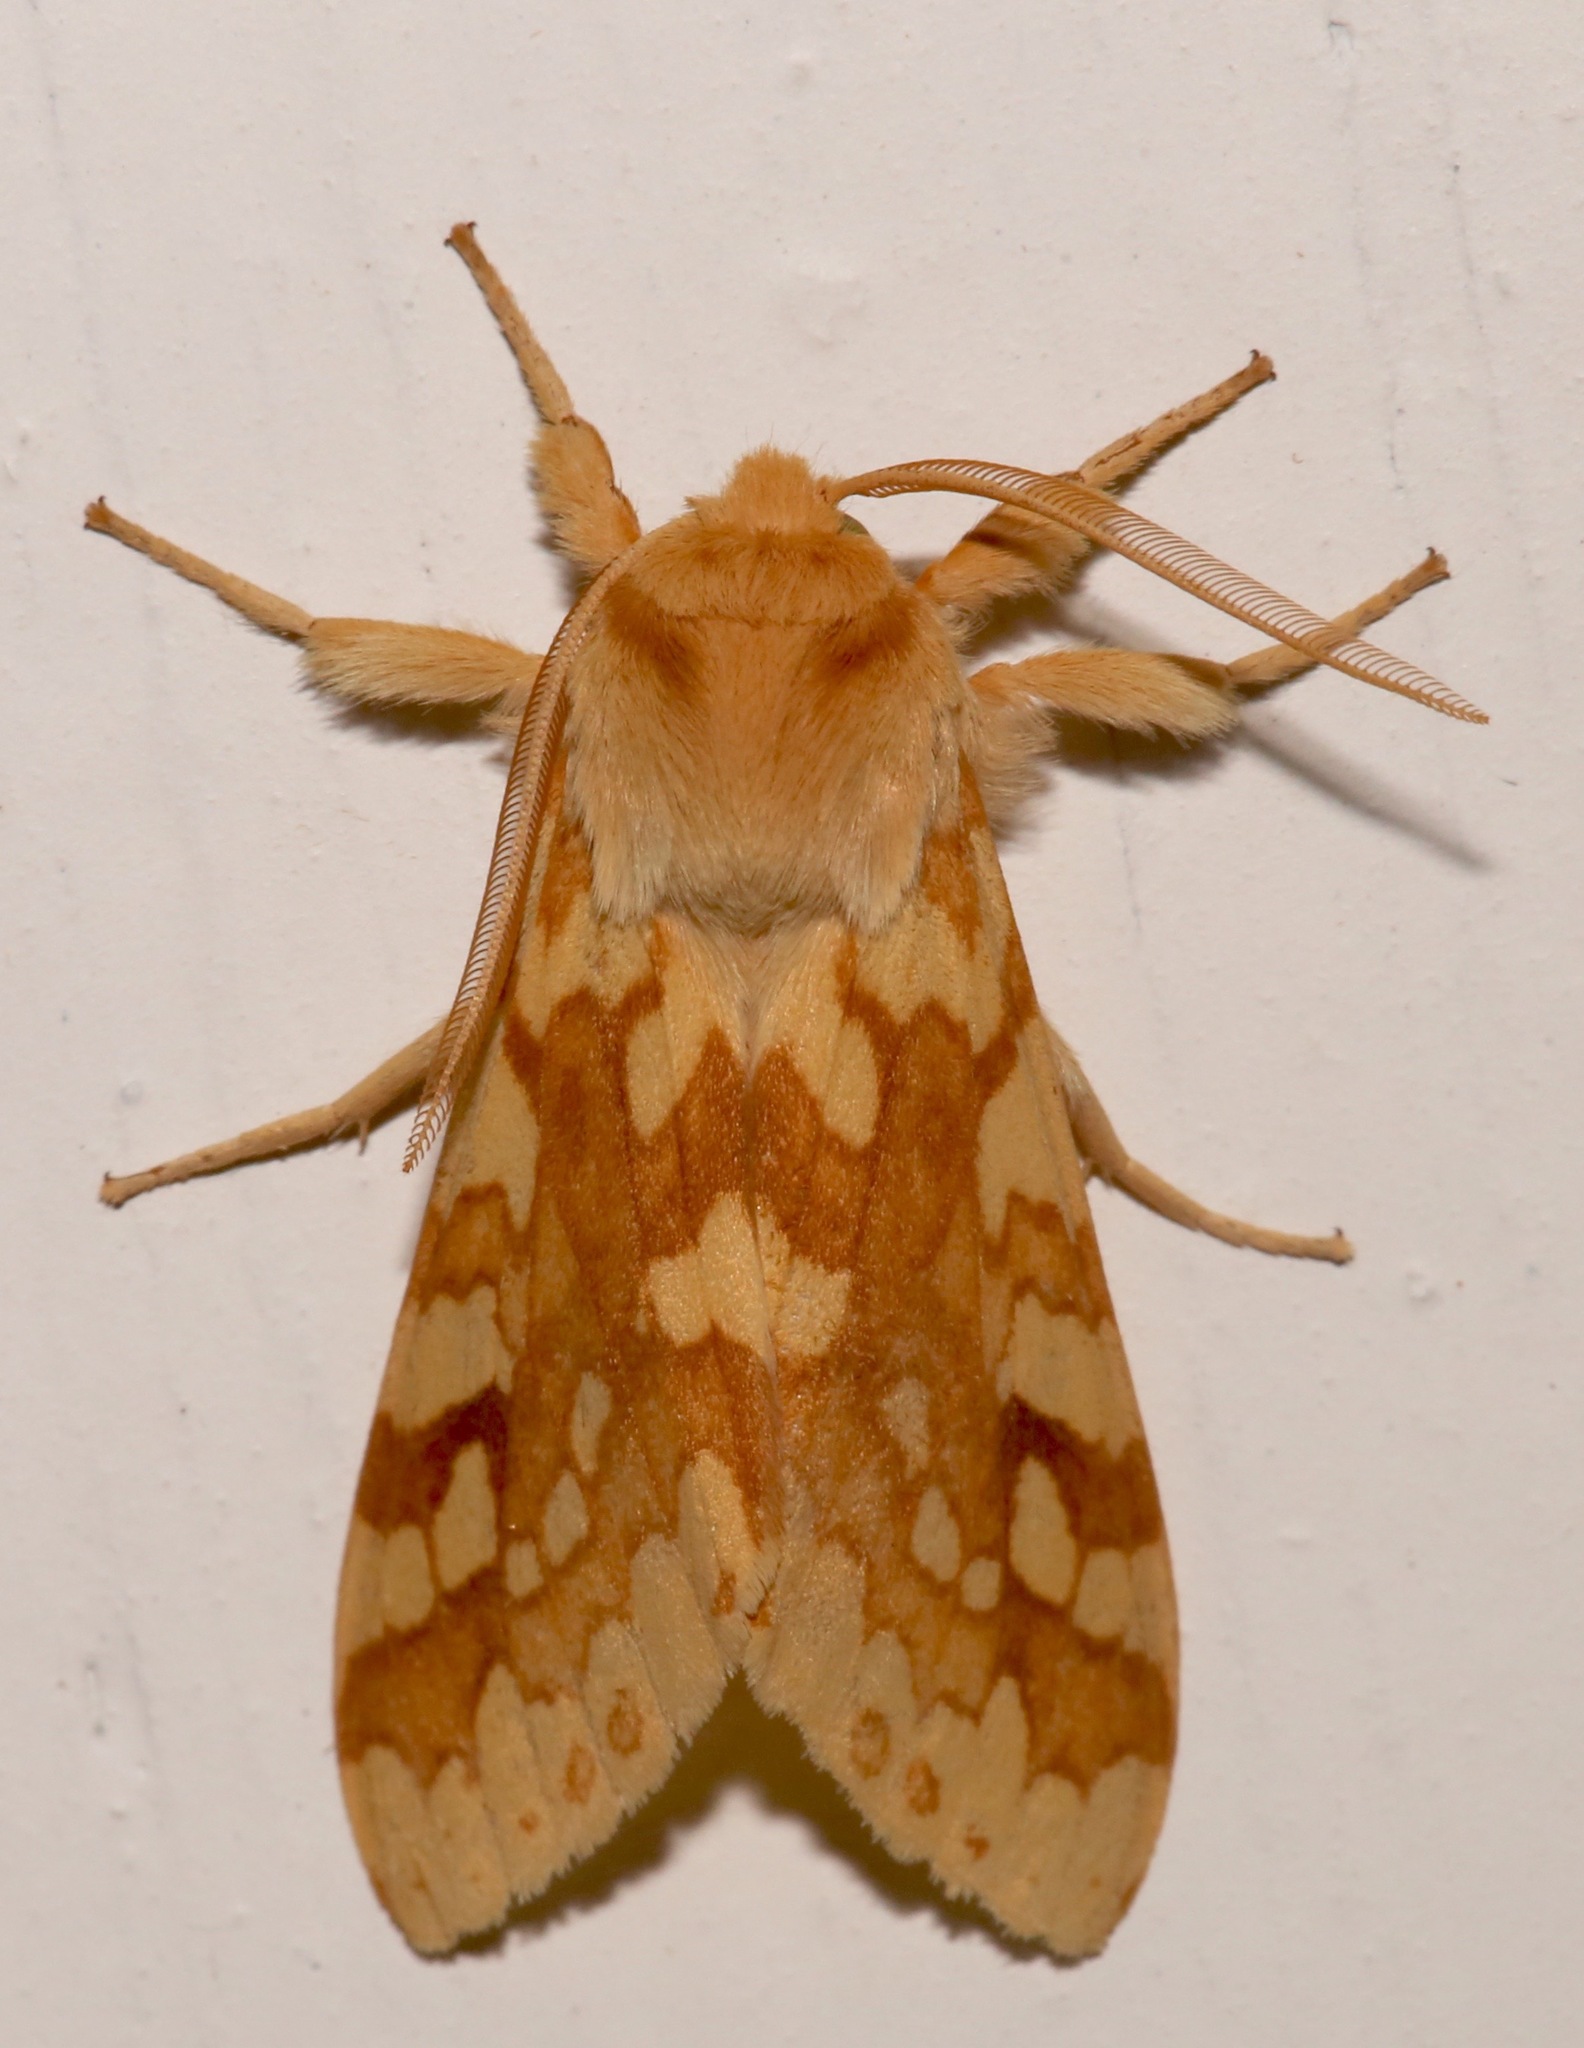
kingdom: Animalia
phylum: Arthropoda
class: Insecta
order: Lepidoptera
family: Erebidae
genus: Lophocampa
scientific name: Lophocampa maculata
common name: Spotted tussock moth
